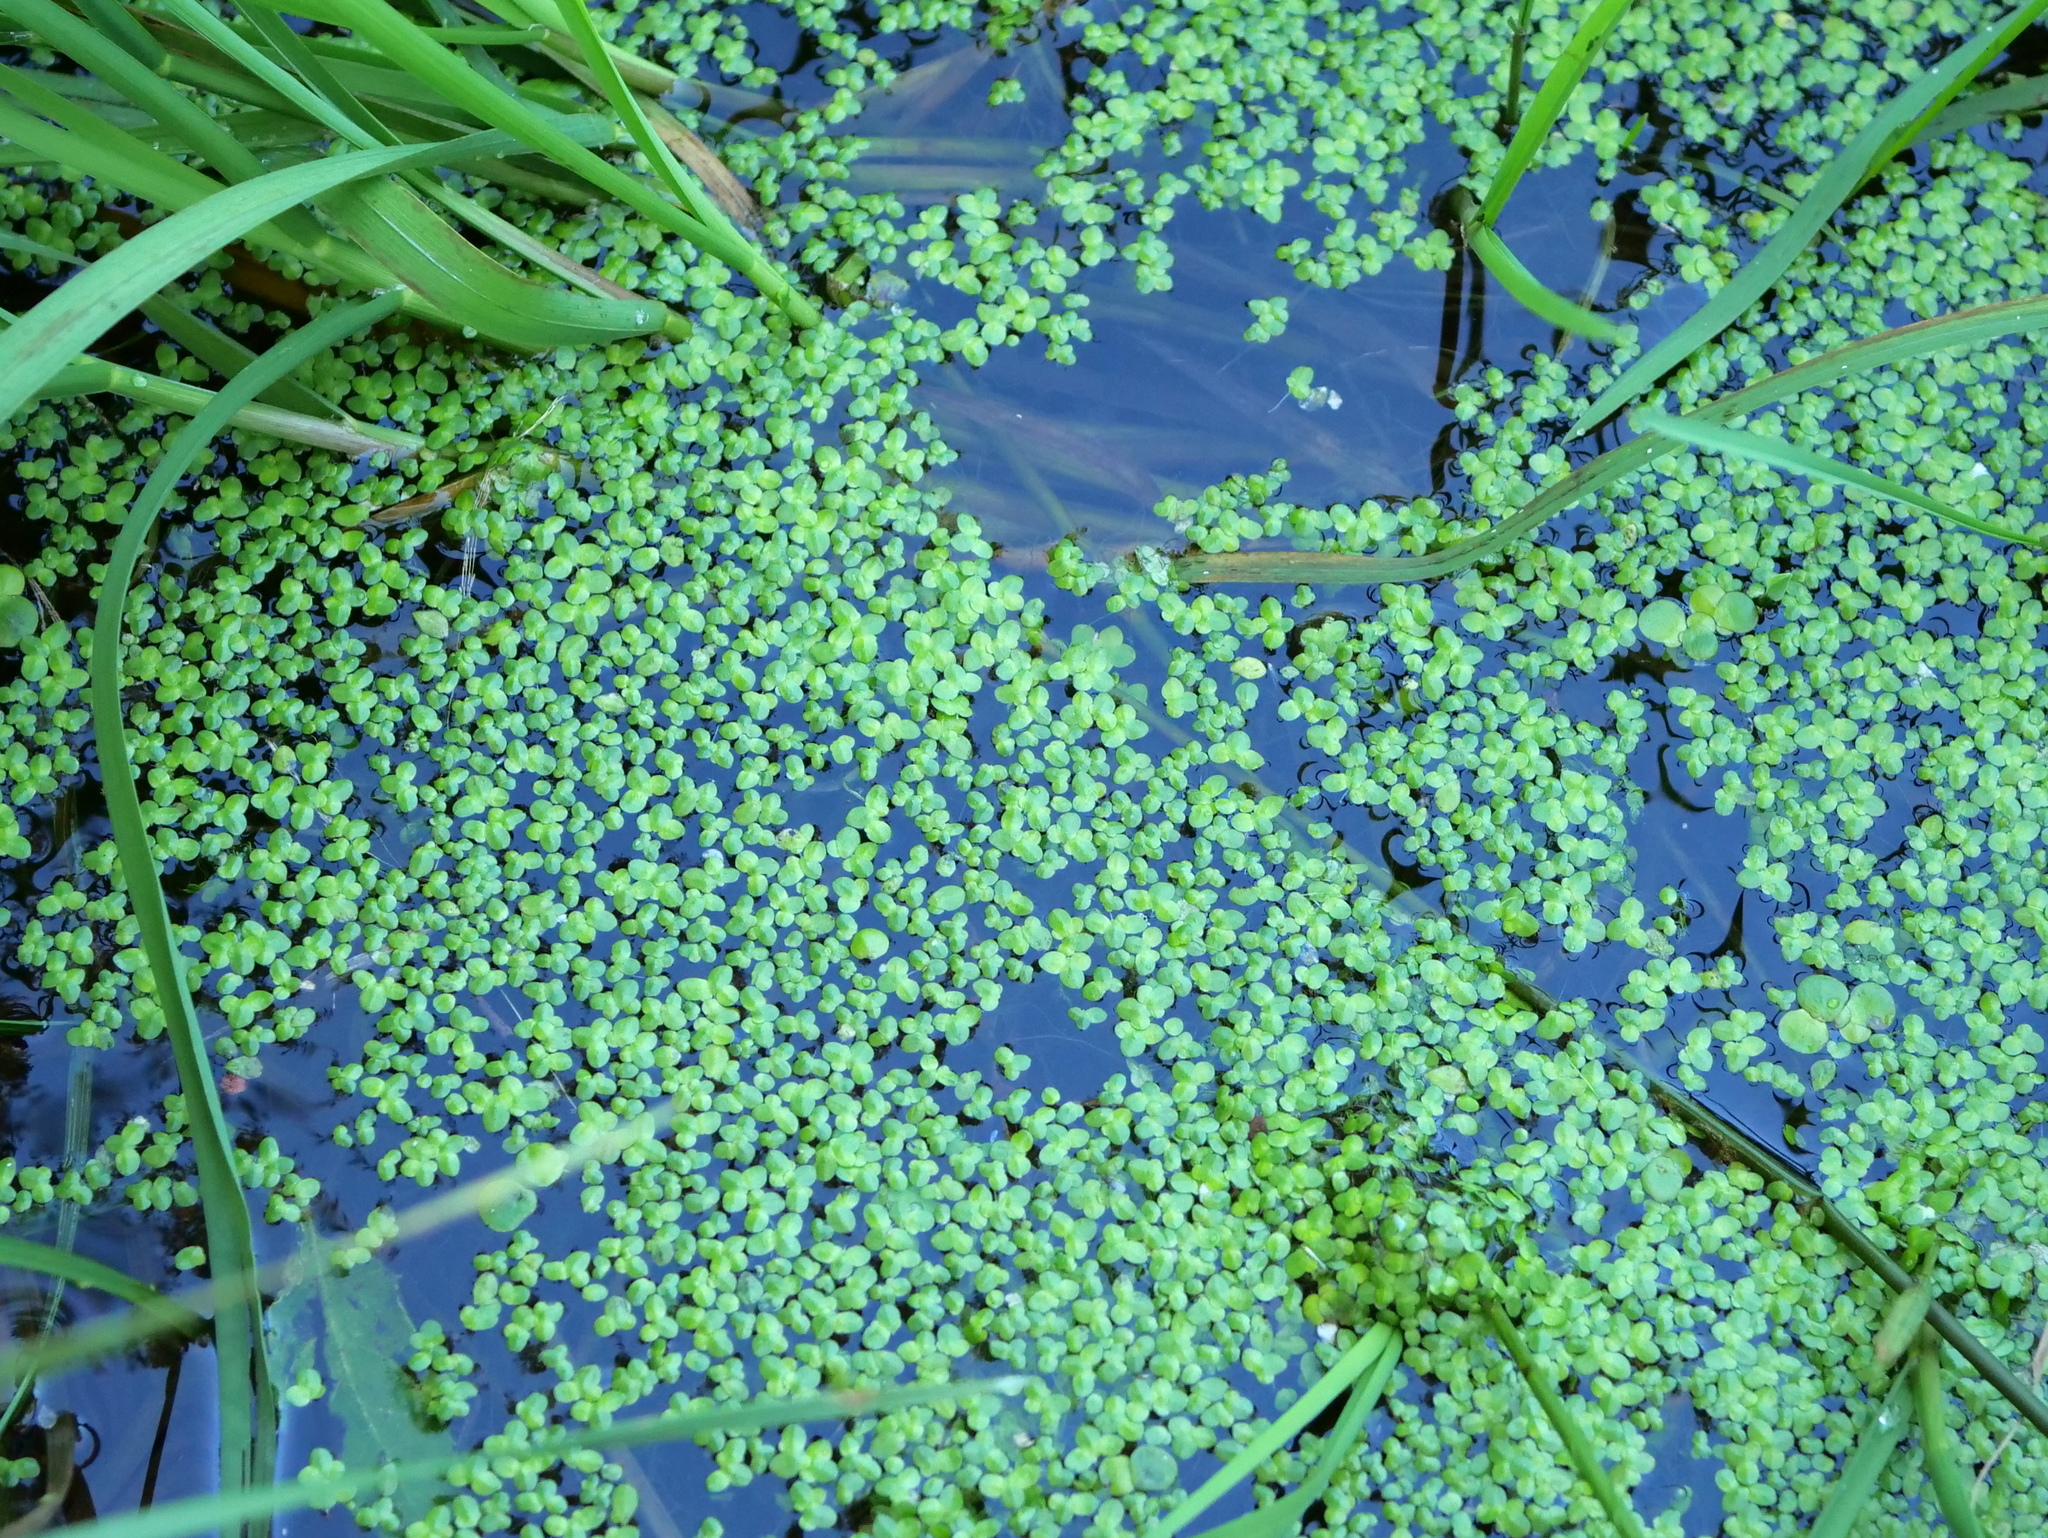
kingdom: Plantae
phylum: Tracheophyta
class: Liliopsida
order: Alismatales
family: Araceae
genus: Lemna
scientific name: Lemna minor
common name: Common duckweed
